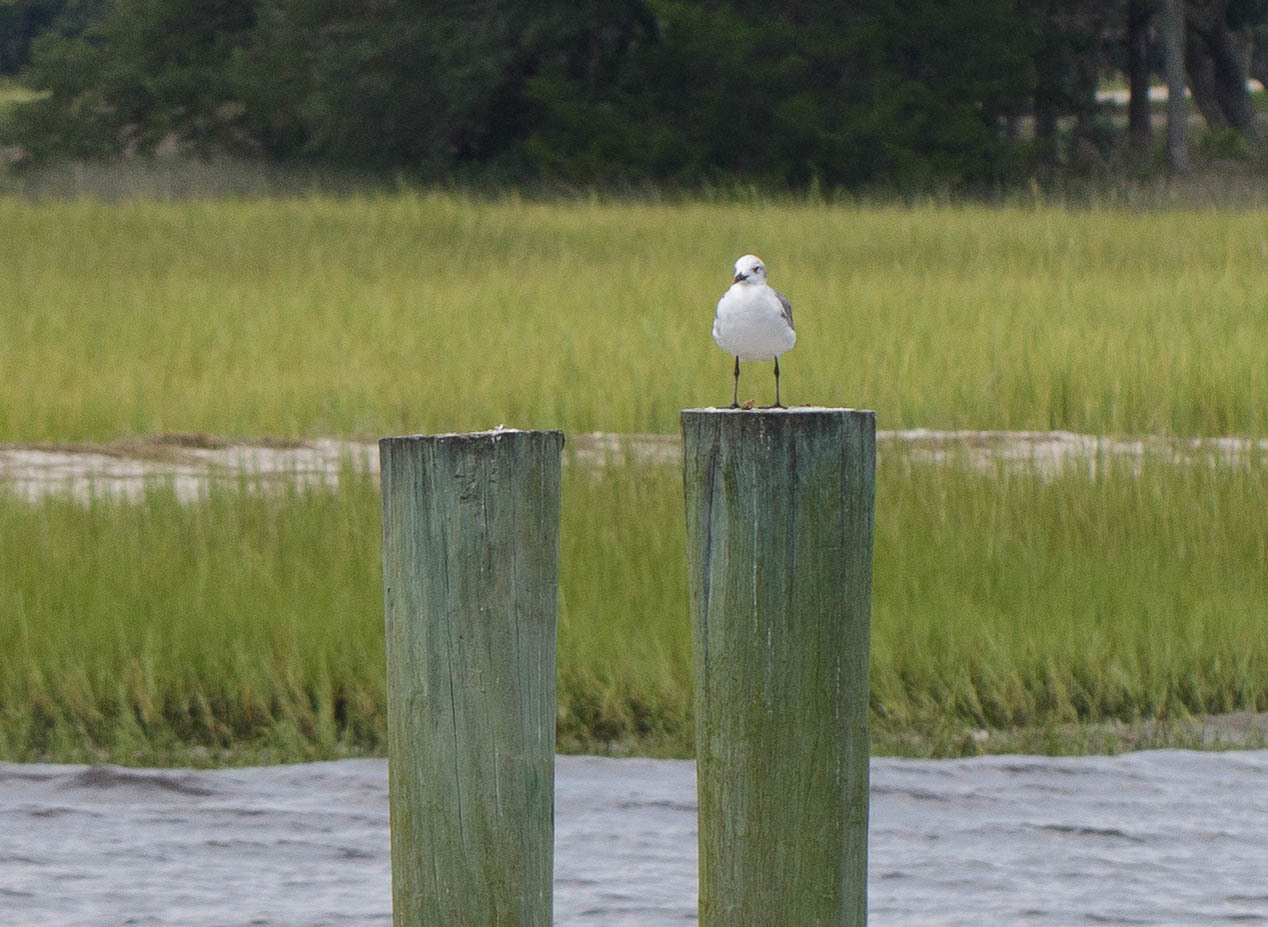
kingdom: Animalia
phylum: Chordata
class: Aves
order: Charadriiformes
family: Laridae
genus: Leucophaeus
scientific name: Leucophaeus atricilla
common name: Laughing gull
